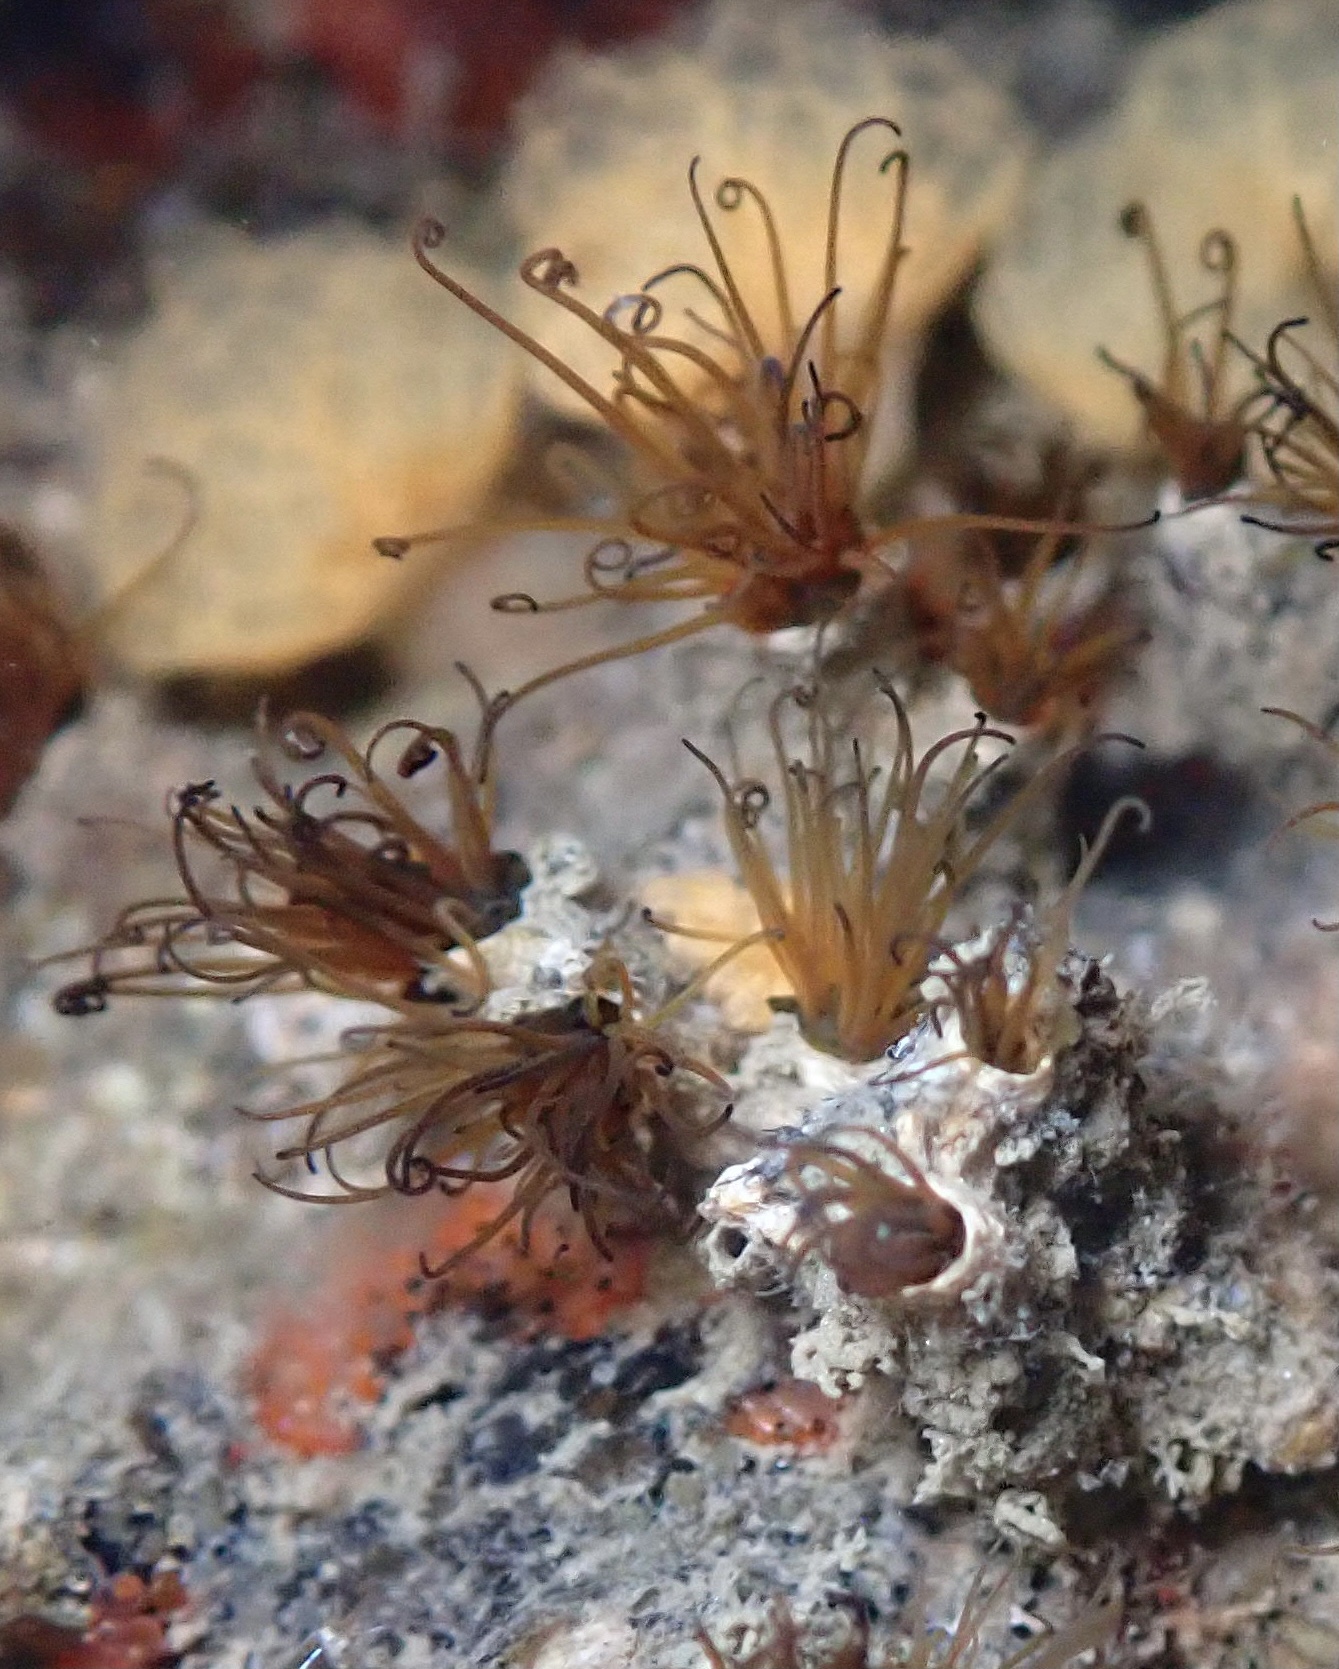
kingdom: Animalia
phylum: Annelida
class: Polychaeta
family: Cirratulidae
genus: Dodecaceria
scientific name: Dodecaceria pacifica
